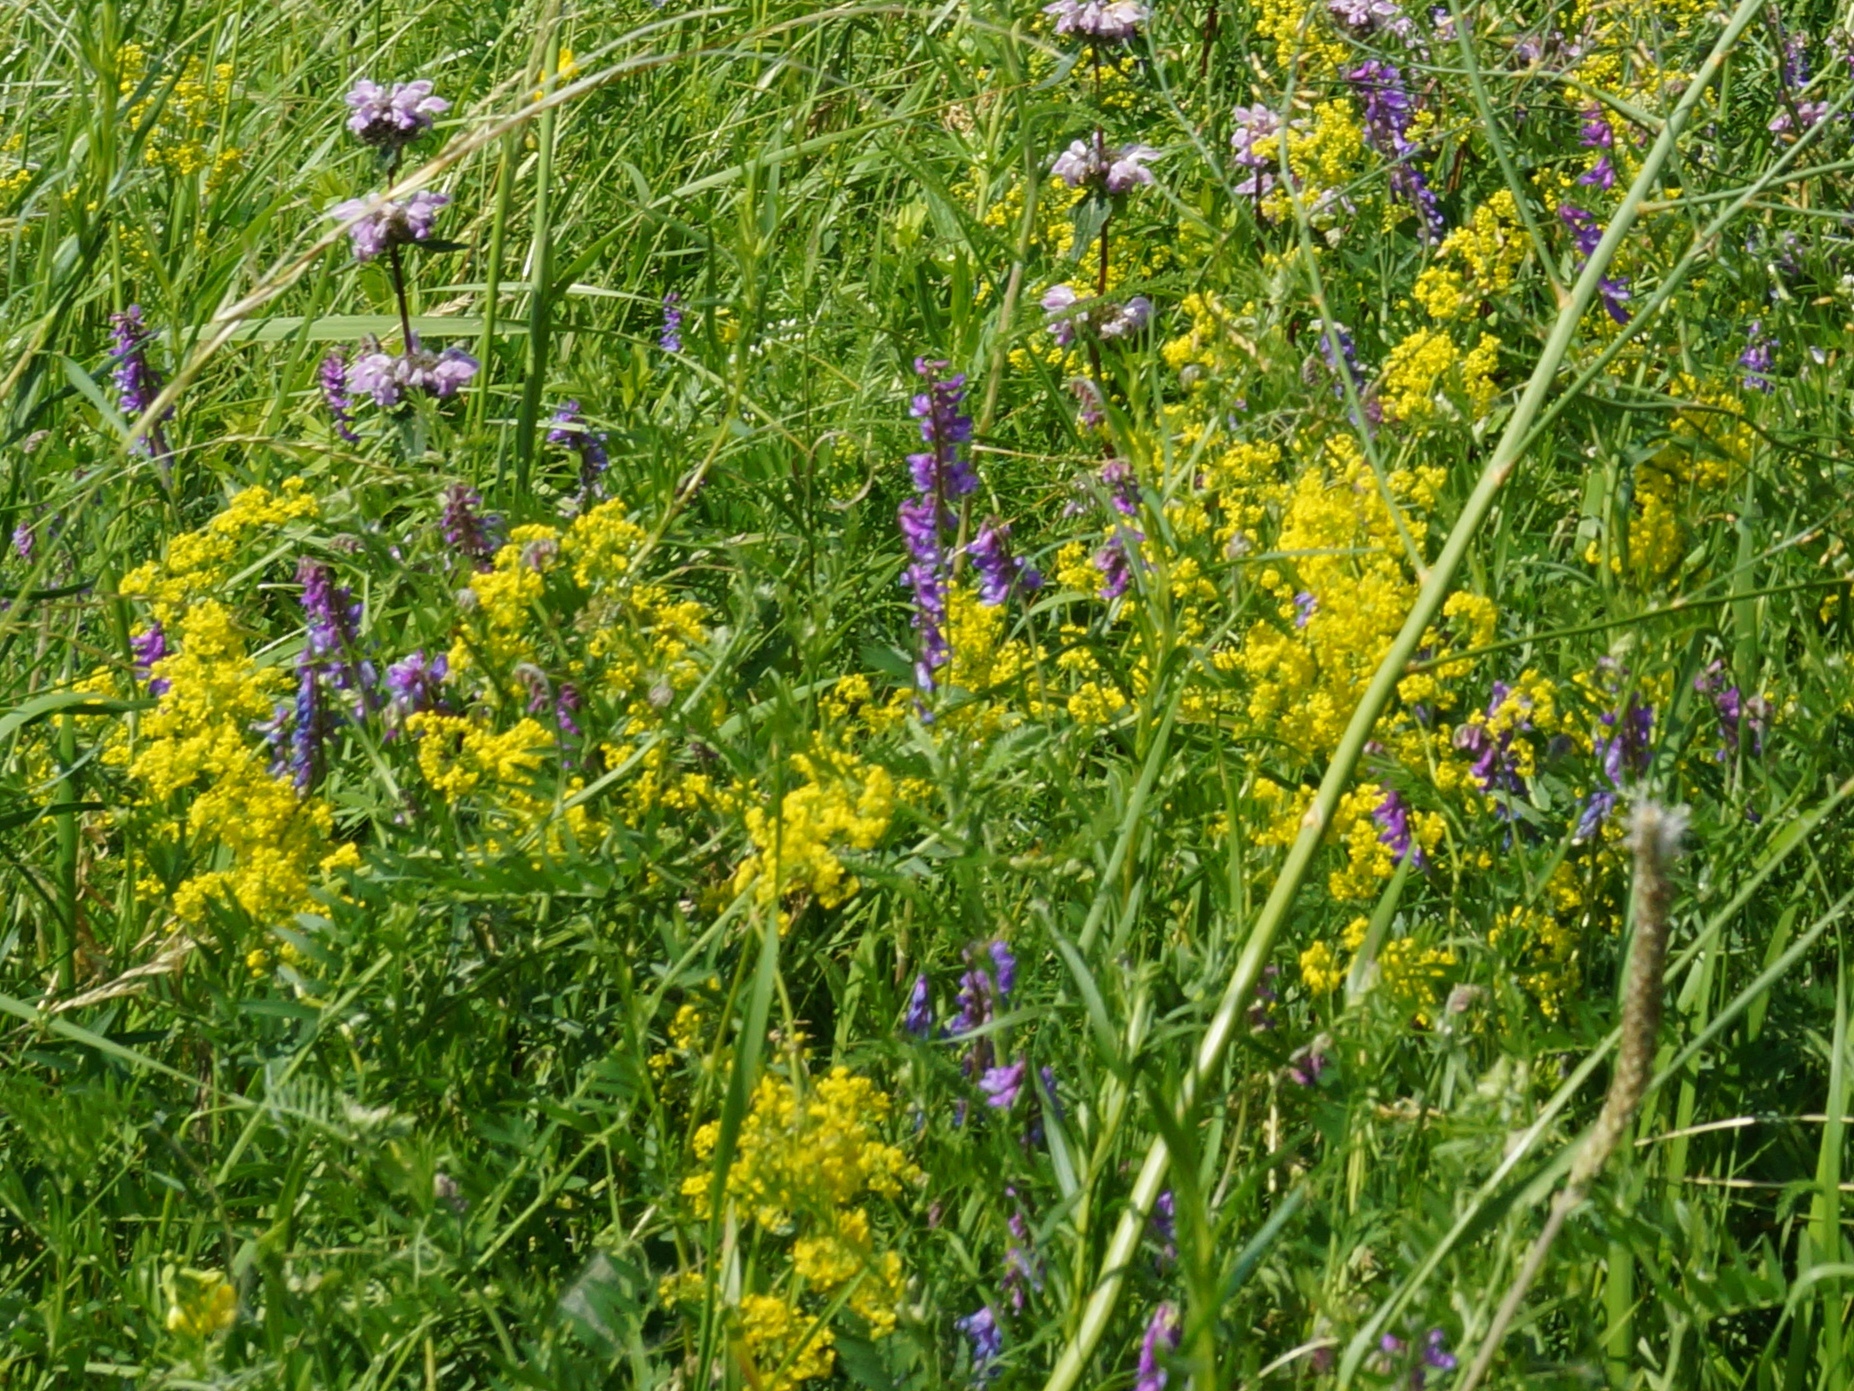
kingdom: Plantae
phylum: Tracheophyta
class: Magnoliopsida
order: Gentianales
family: Rubiaceae
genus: Galium
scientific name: Galium verum
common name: Lady's bedstraw
